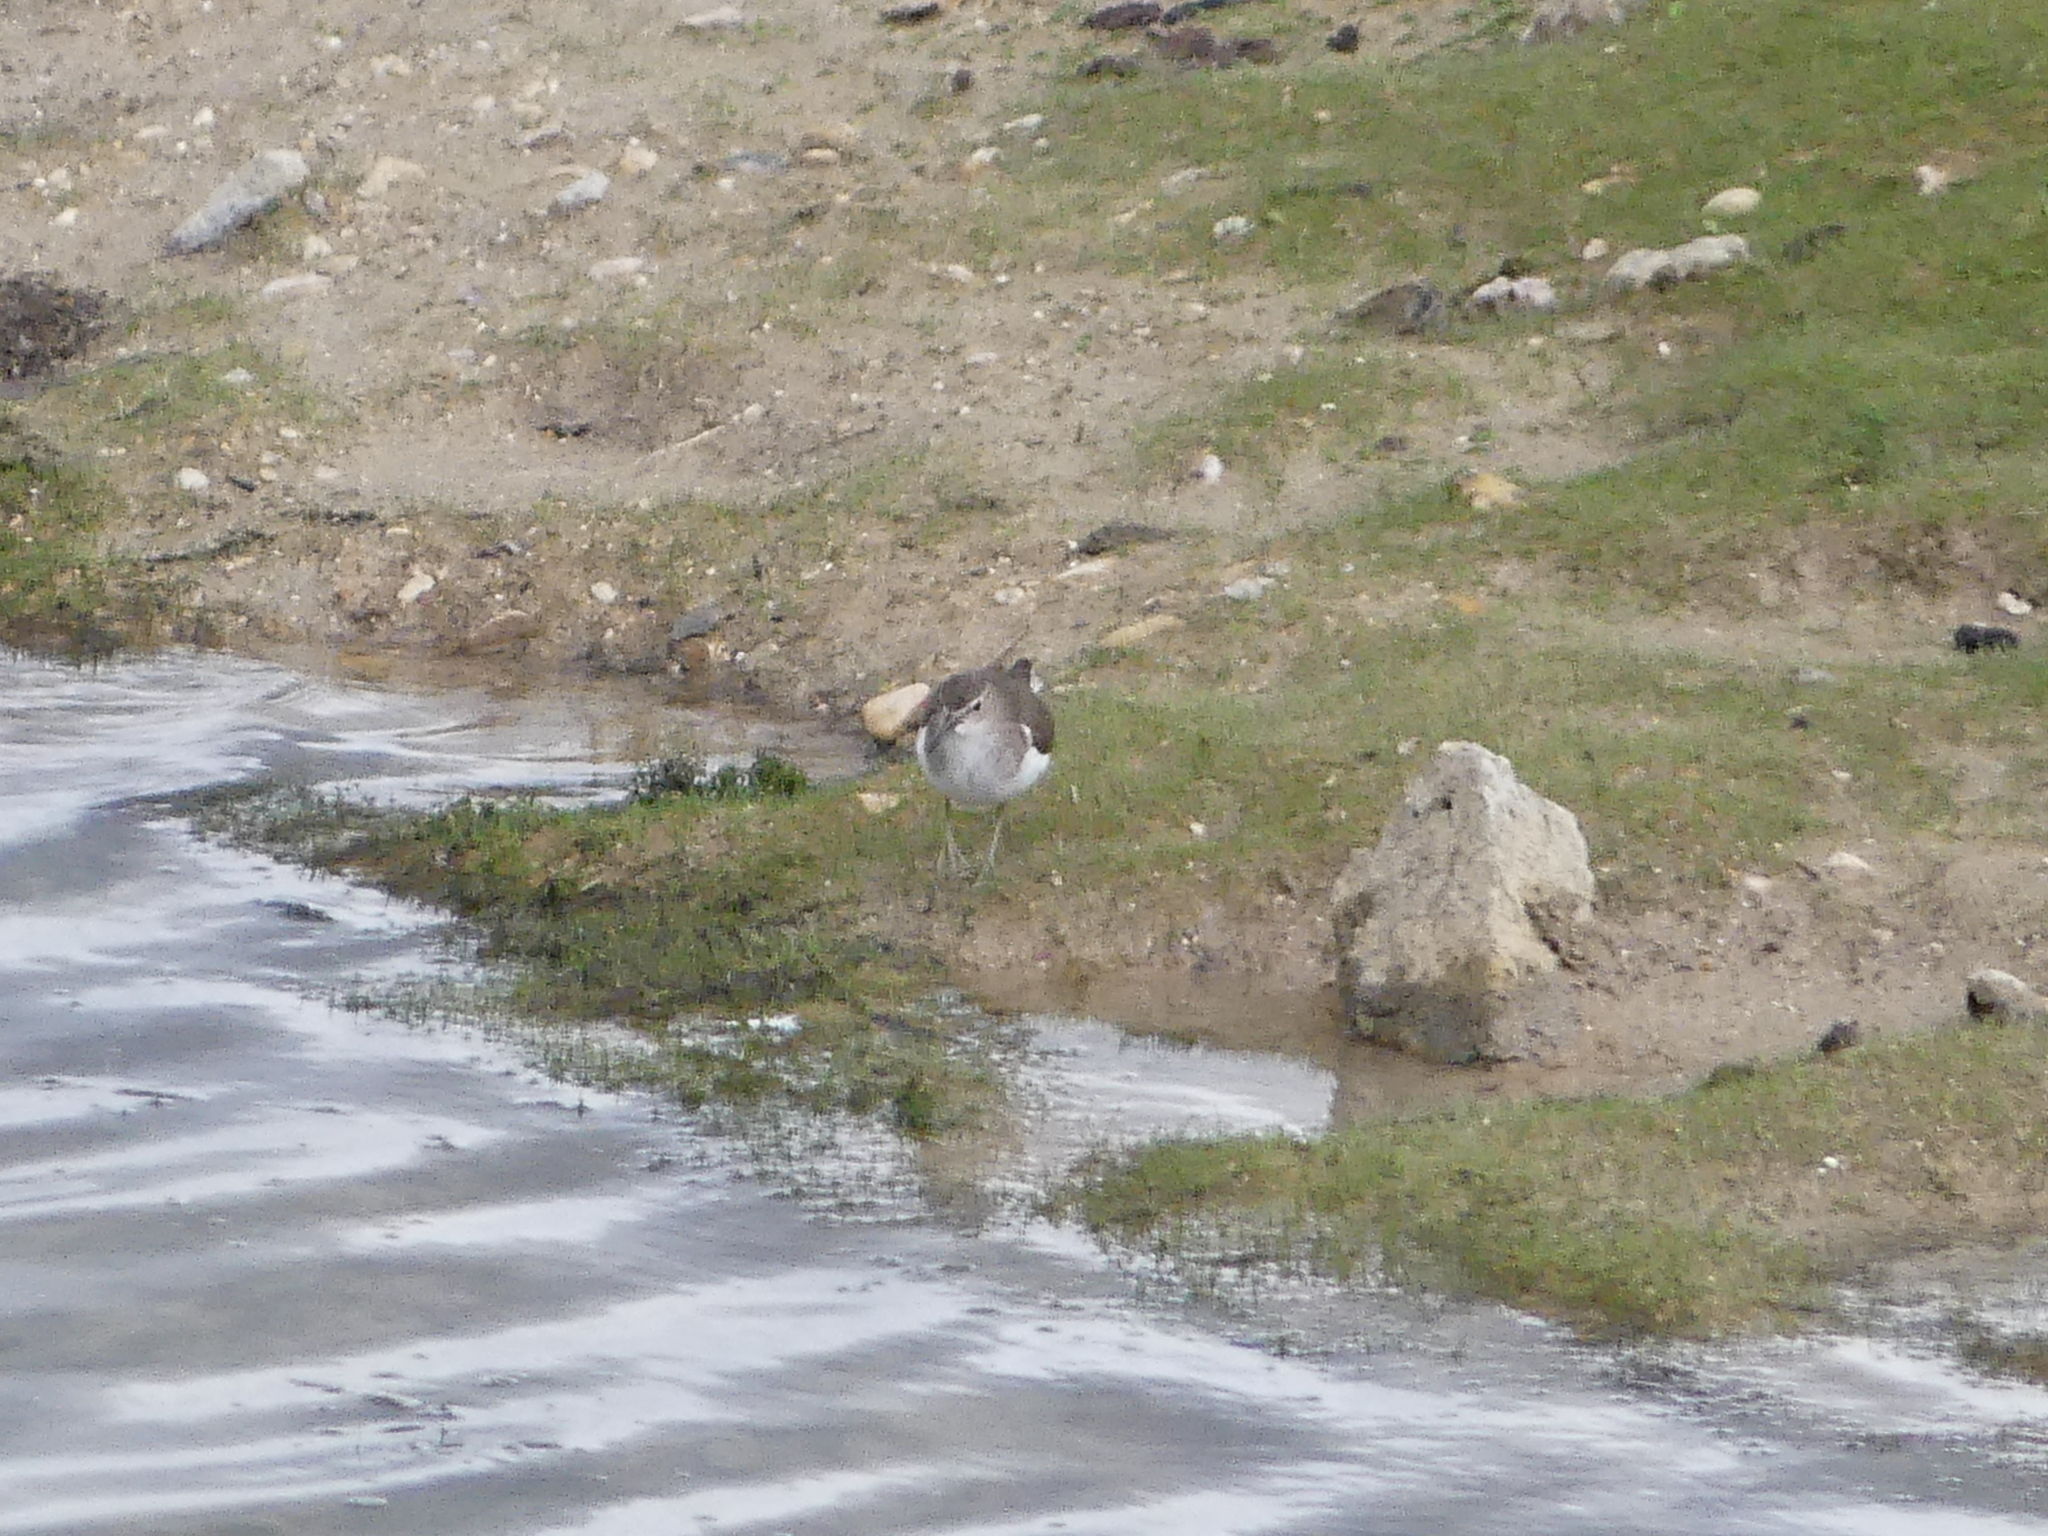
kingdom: Animalia
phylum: Chordata
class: Aves
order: Charadriiformes
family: Scolopacidae
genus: Actitis
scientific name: Actitis hypoleucos
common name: Common sandpiper
